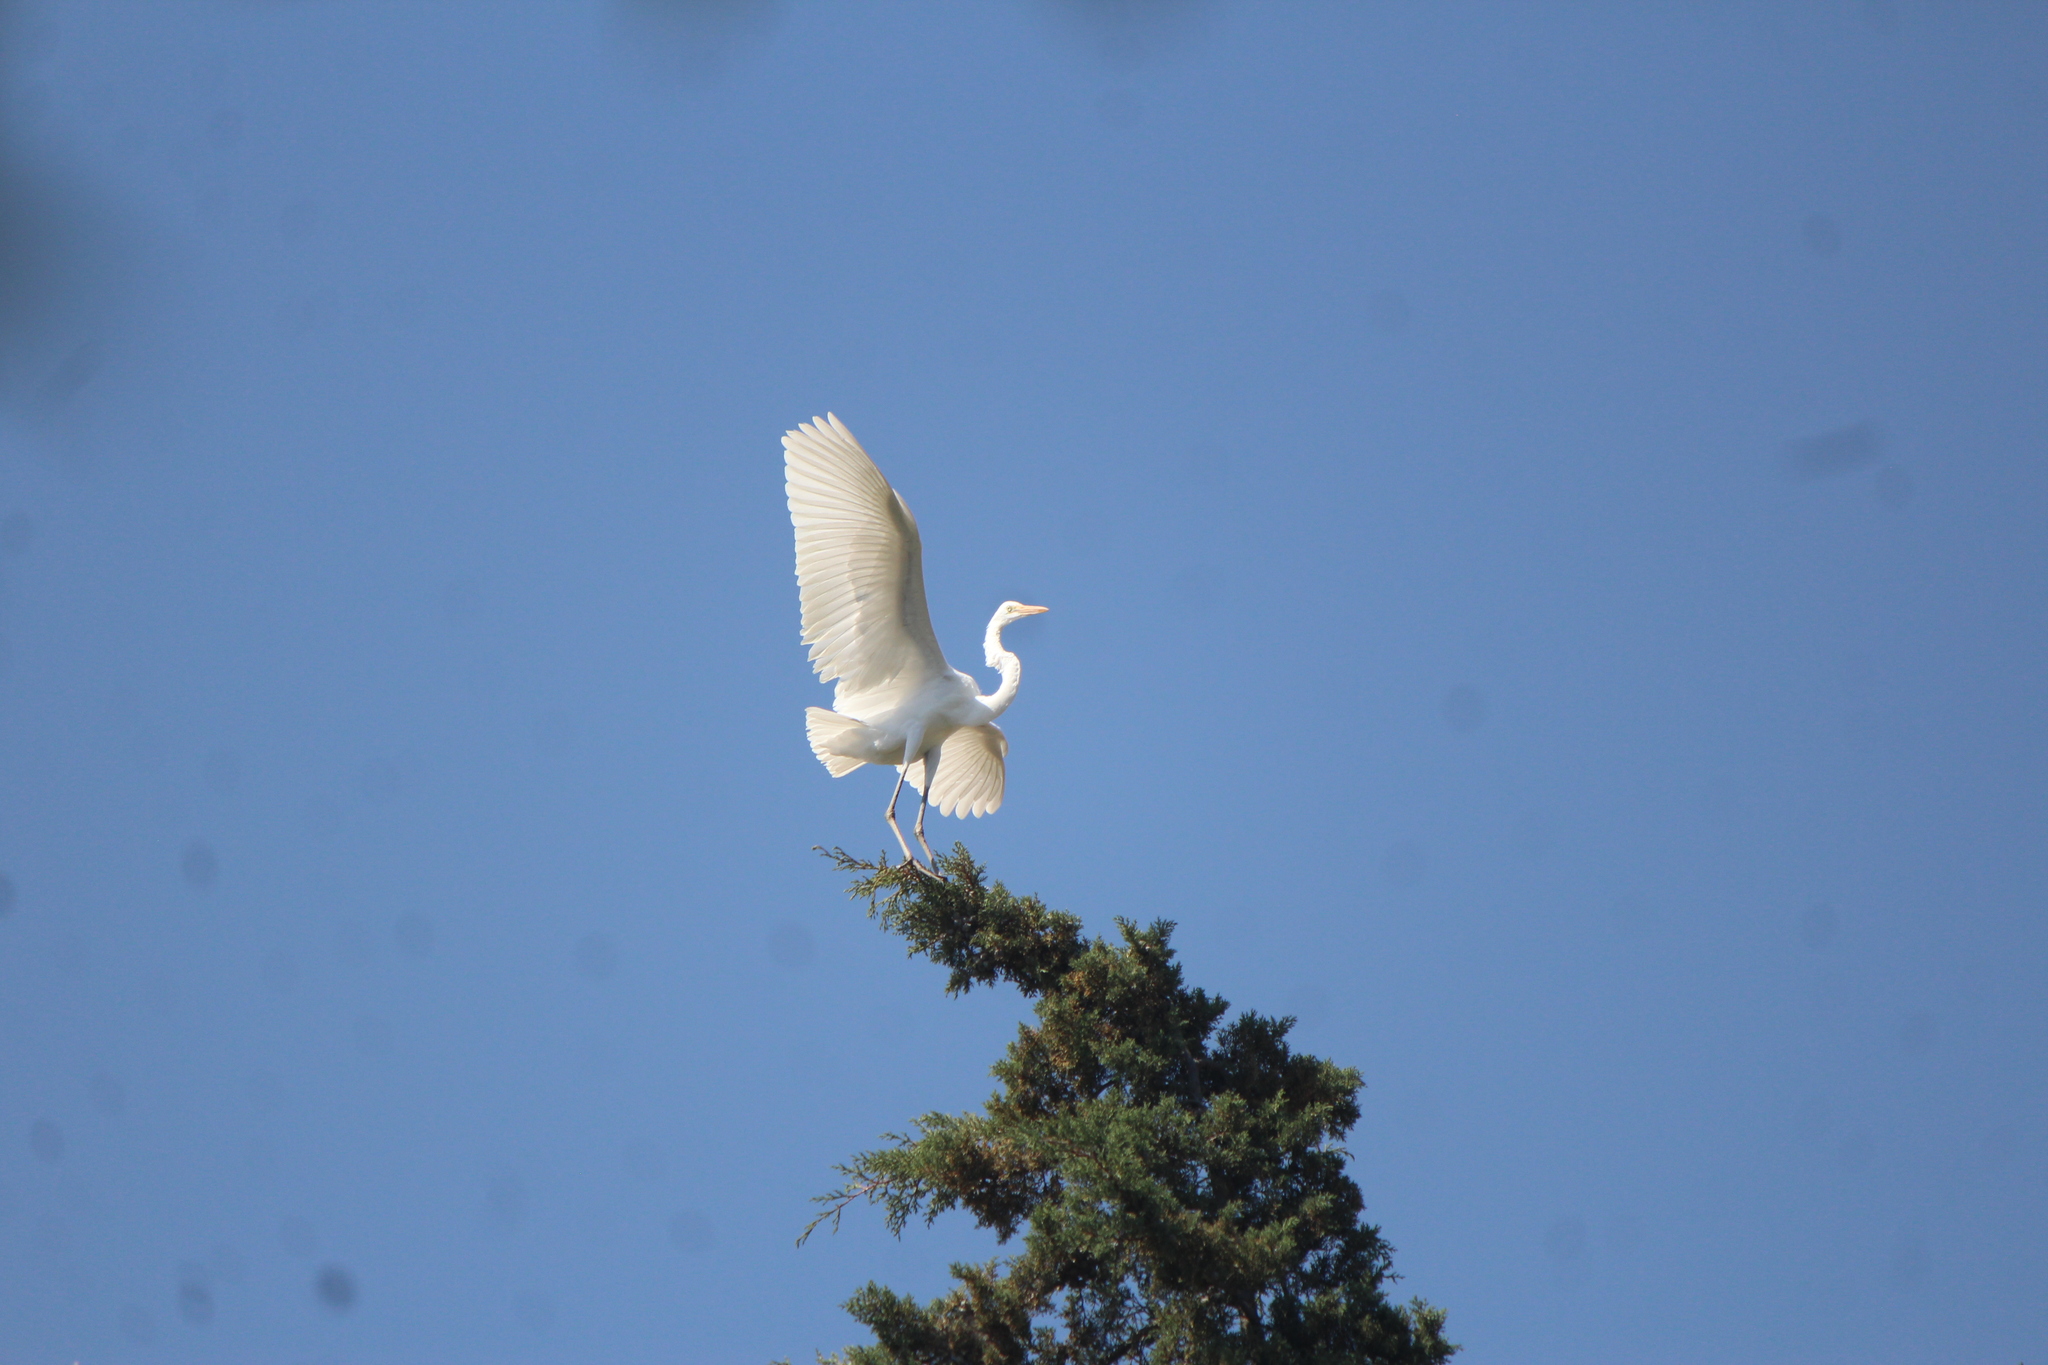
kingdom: Animalia
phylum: Chordata
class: Aves
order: Pelecaniformes
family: Ardeidae
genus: Ardea
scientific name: Ardea alba
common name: Great egret
